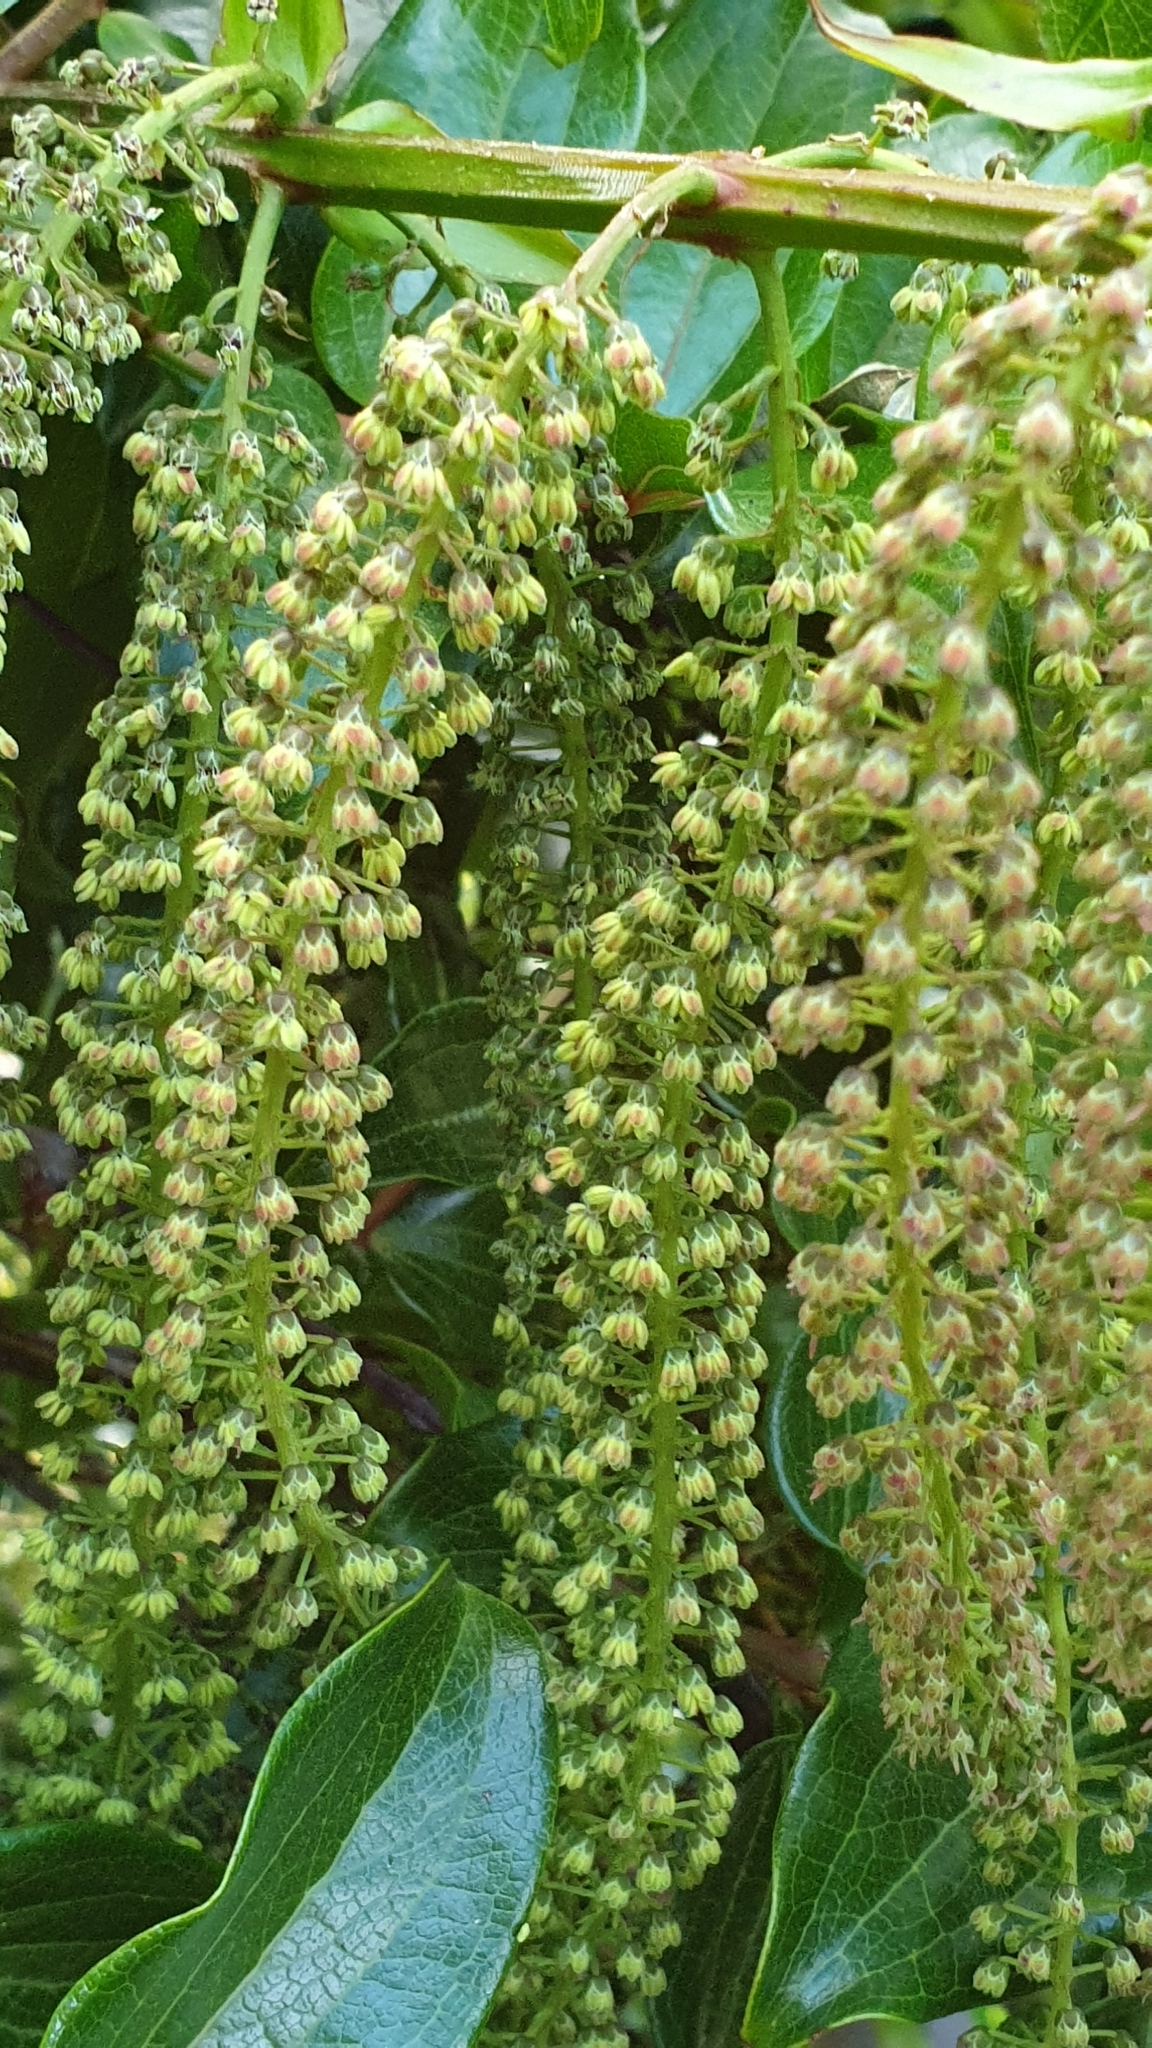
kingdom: Plantae
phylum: Tracheophyta
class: Magnoliopsida
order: Cucurbitales
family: Coriariaceae
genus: Coriaria
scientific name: Coriaria arborea
